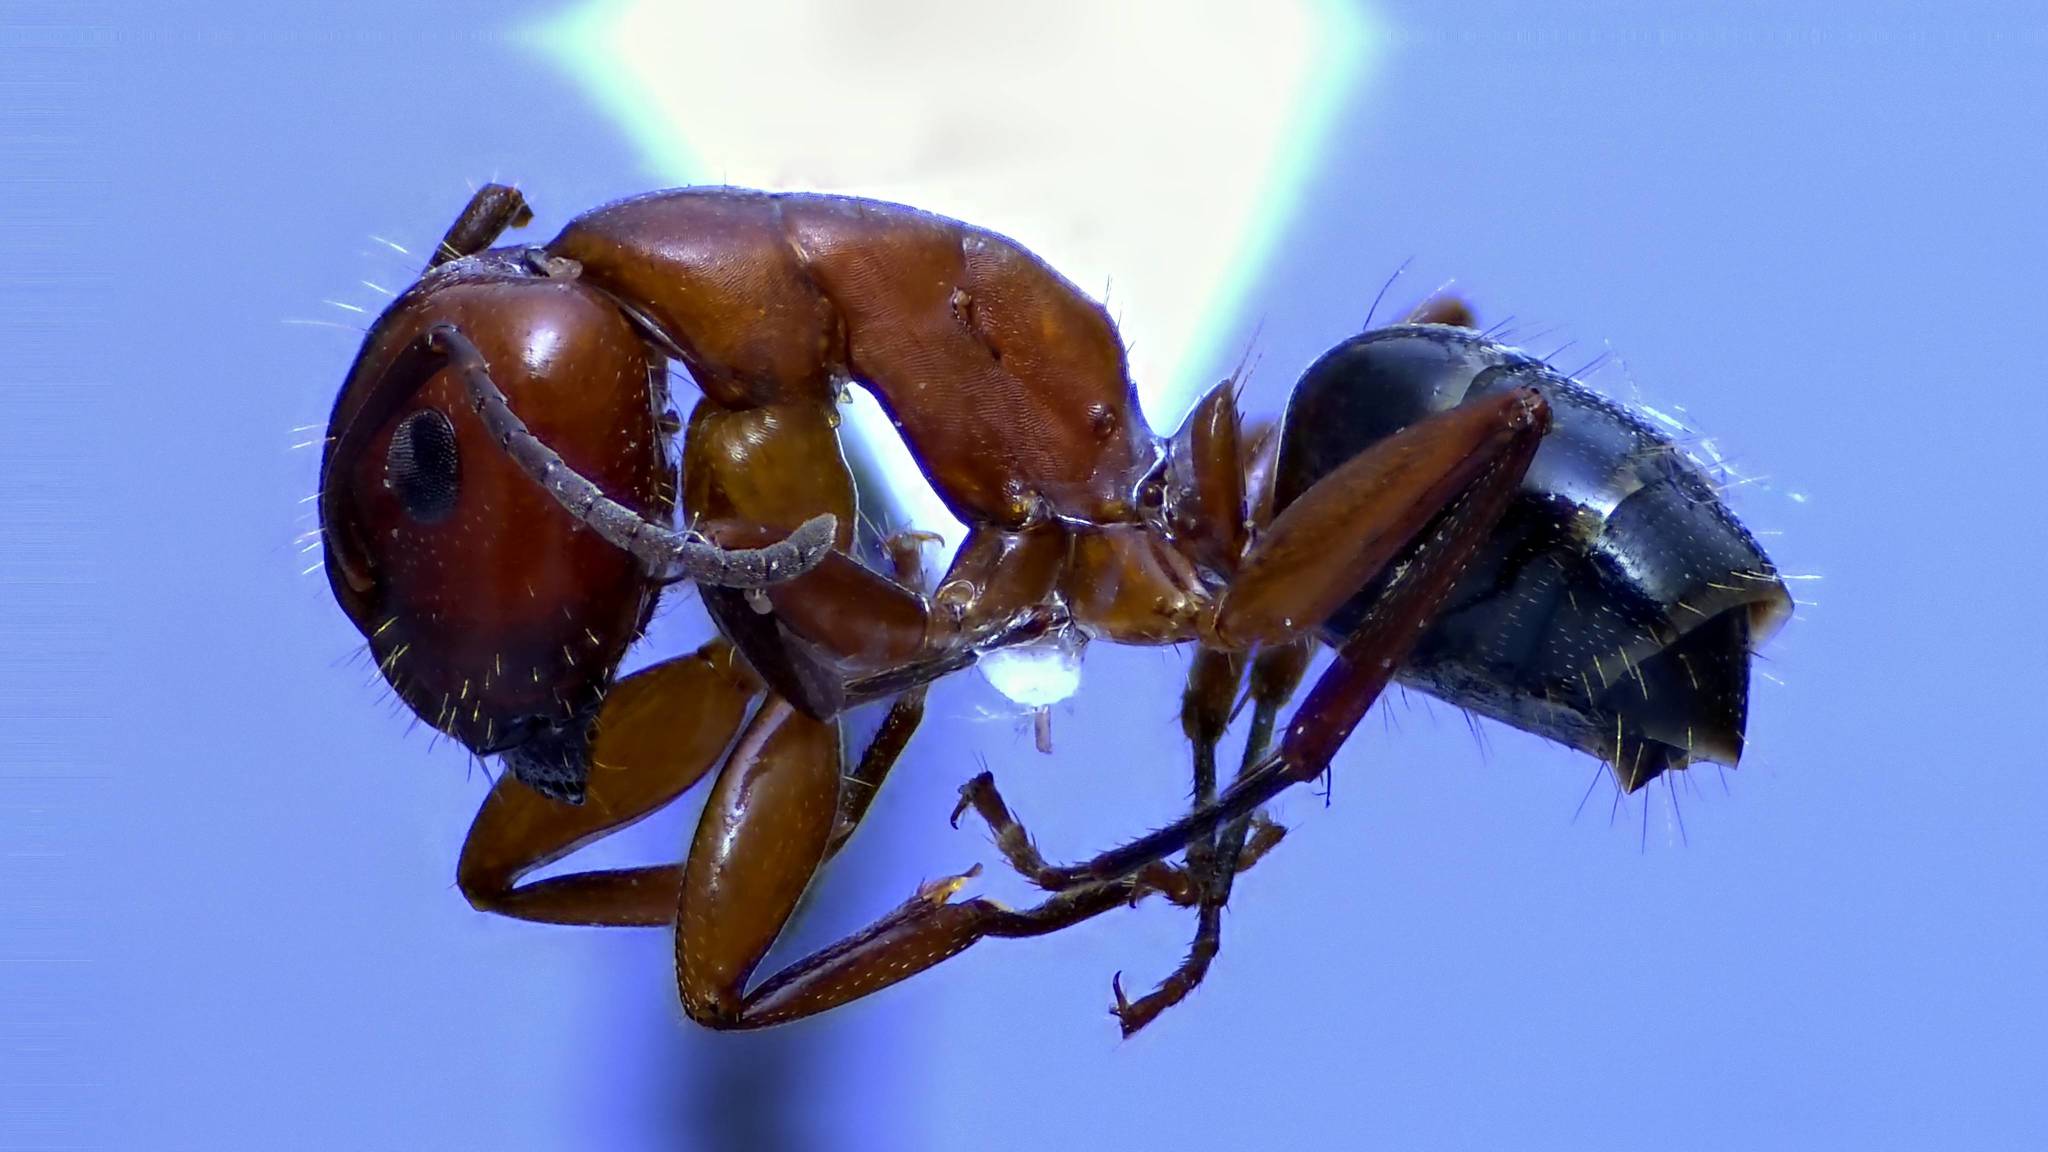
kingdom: Animalia
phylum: Arthropoda
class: Insecta
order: Hymenoptera
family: Formicidae
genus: Camponotus
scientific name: Camponotus discolor
